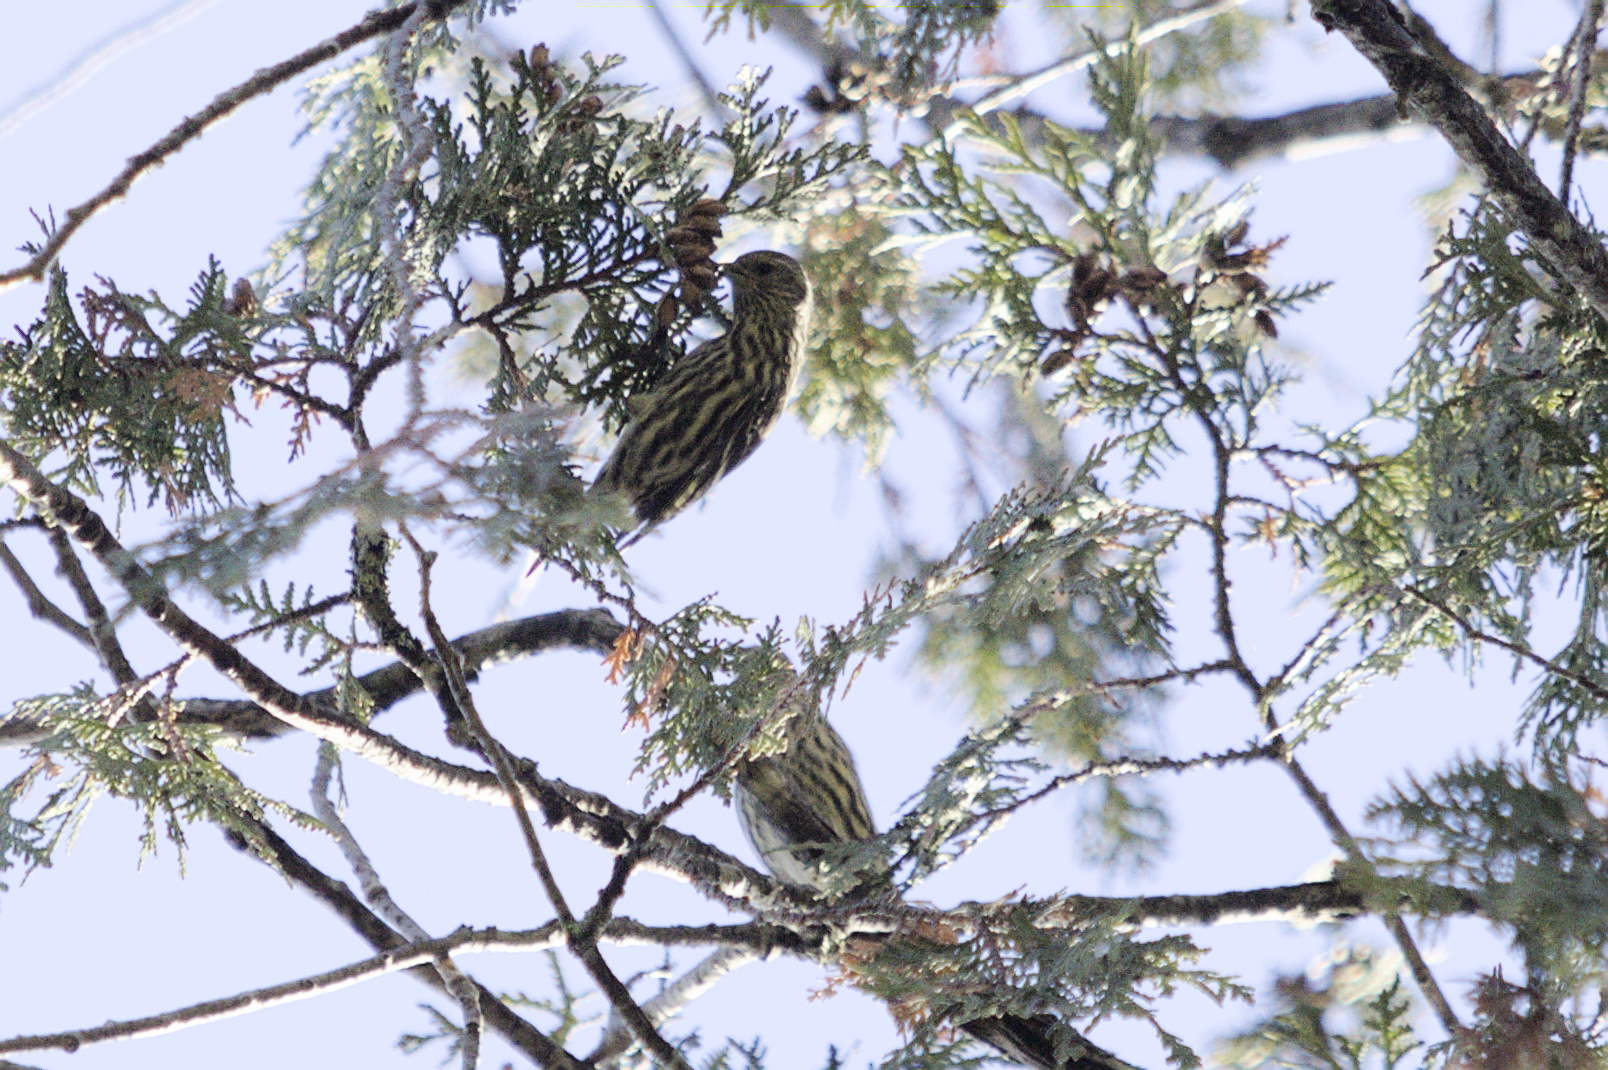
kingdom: Animalia
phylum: Chordata
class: Aves
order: Passeriformes
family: Fringillidae
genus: Spinus
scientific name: Spinus pinus
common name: Pine siskin
